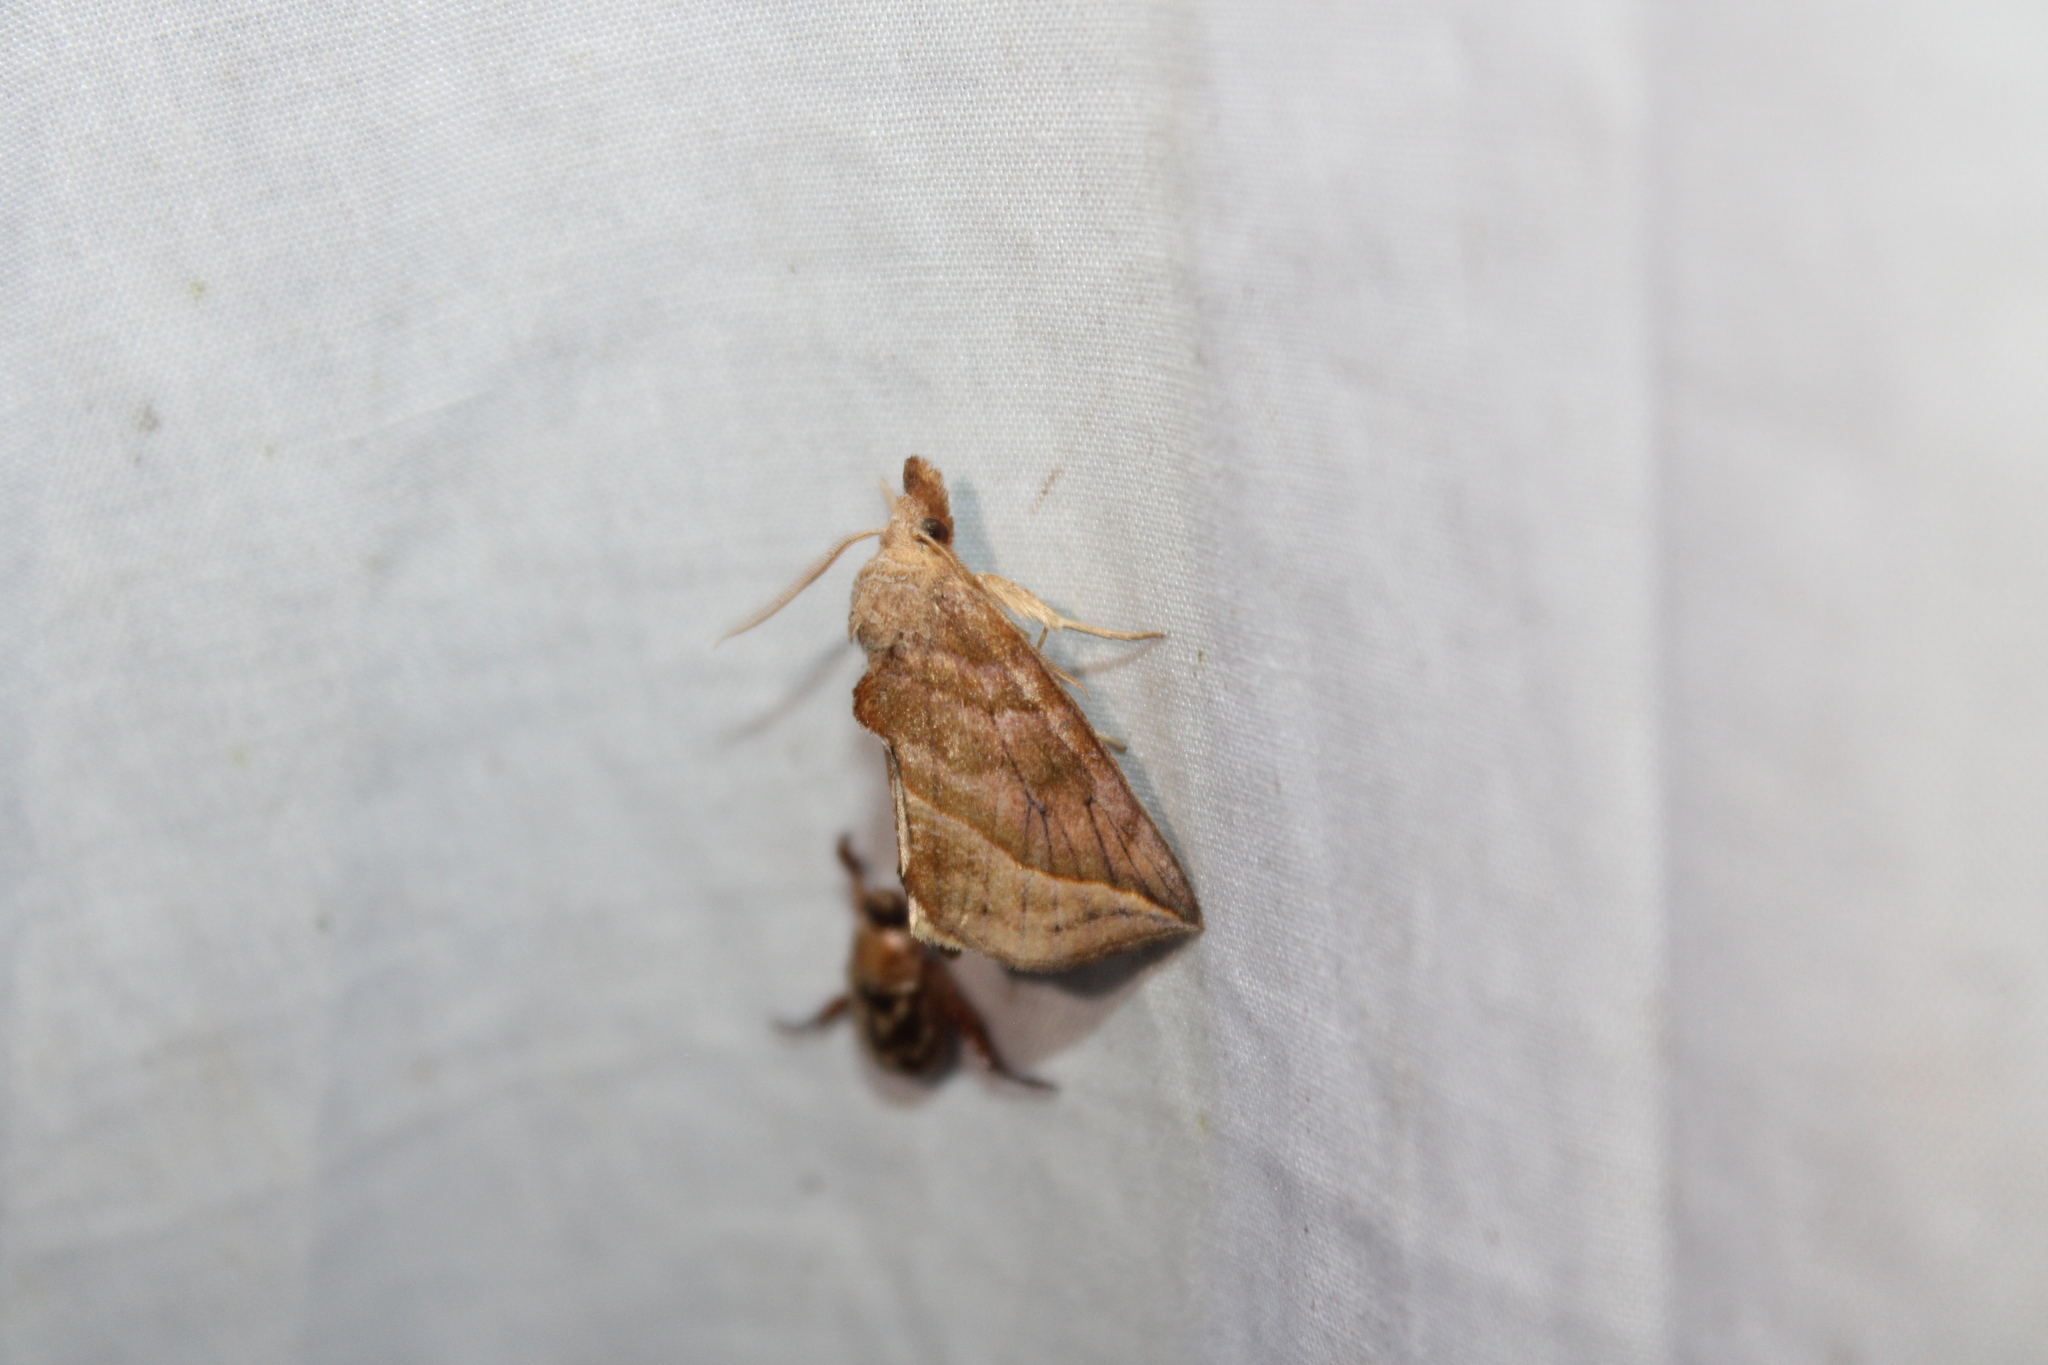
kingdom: Animalia
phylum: Arthropoda
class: Insecta
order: Lepidoptera
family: Erebidae
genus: Calyptra
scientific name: Calyptra canadensis
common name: Canadian owlet
